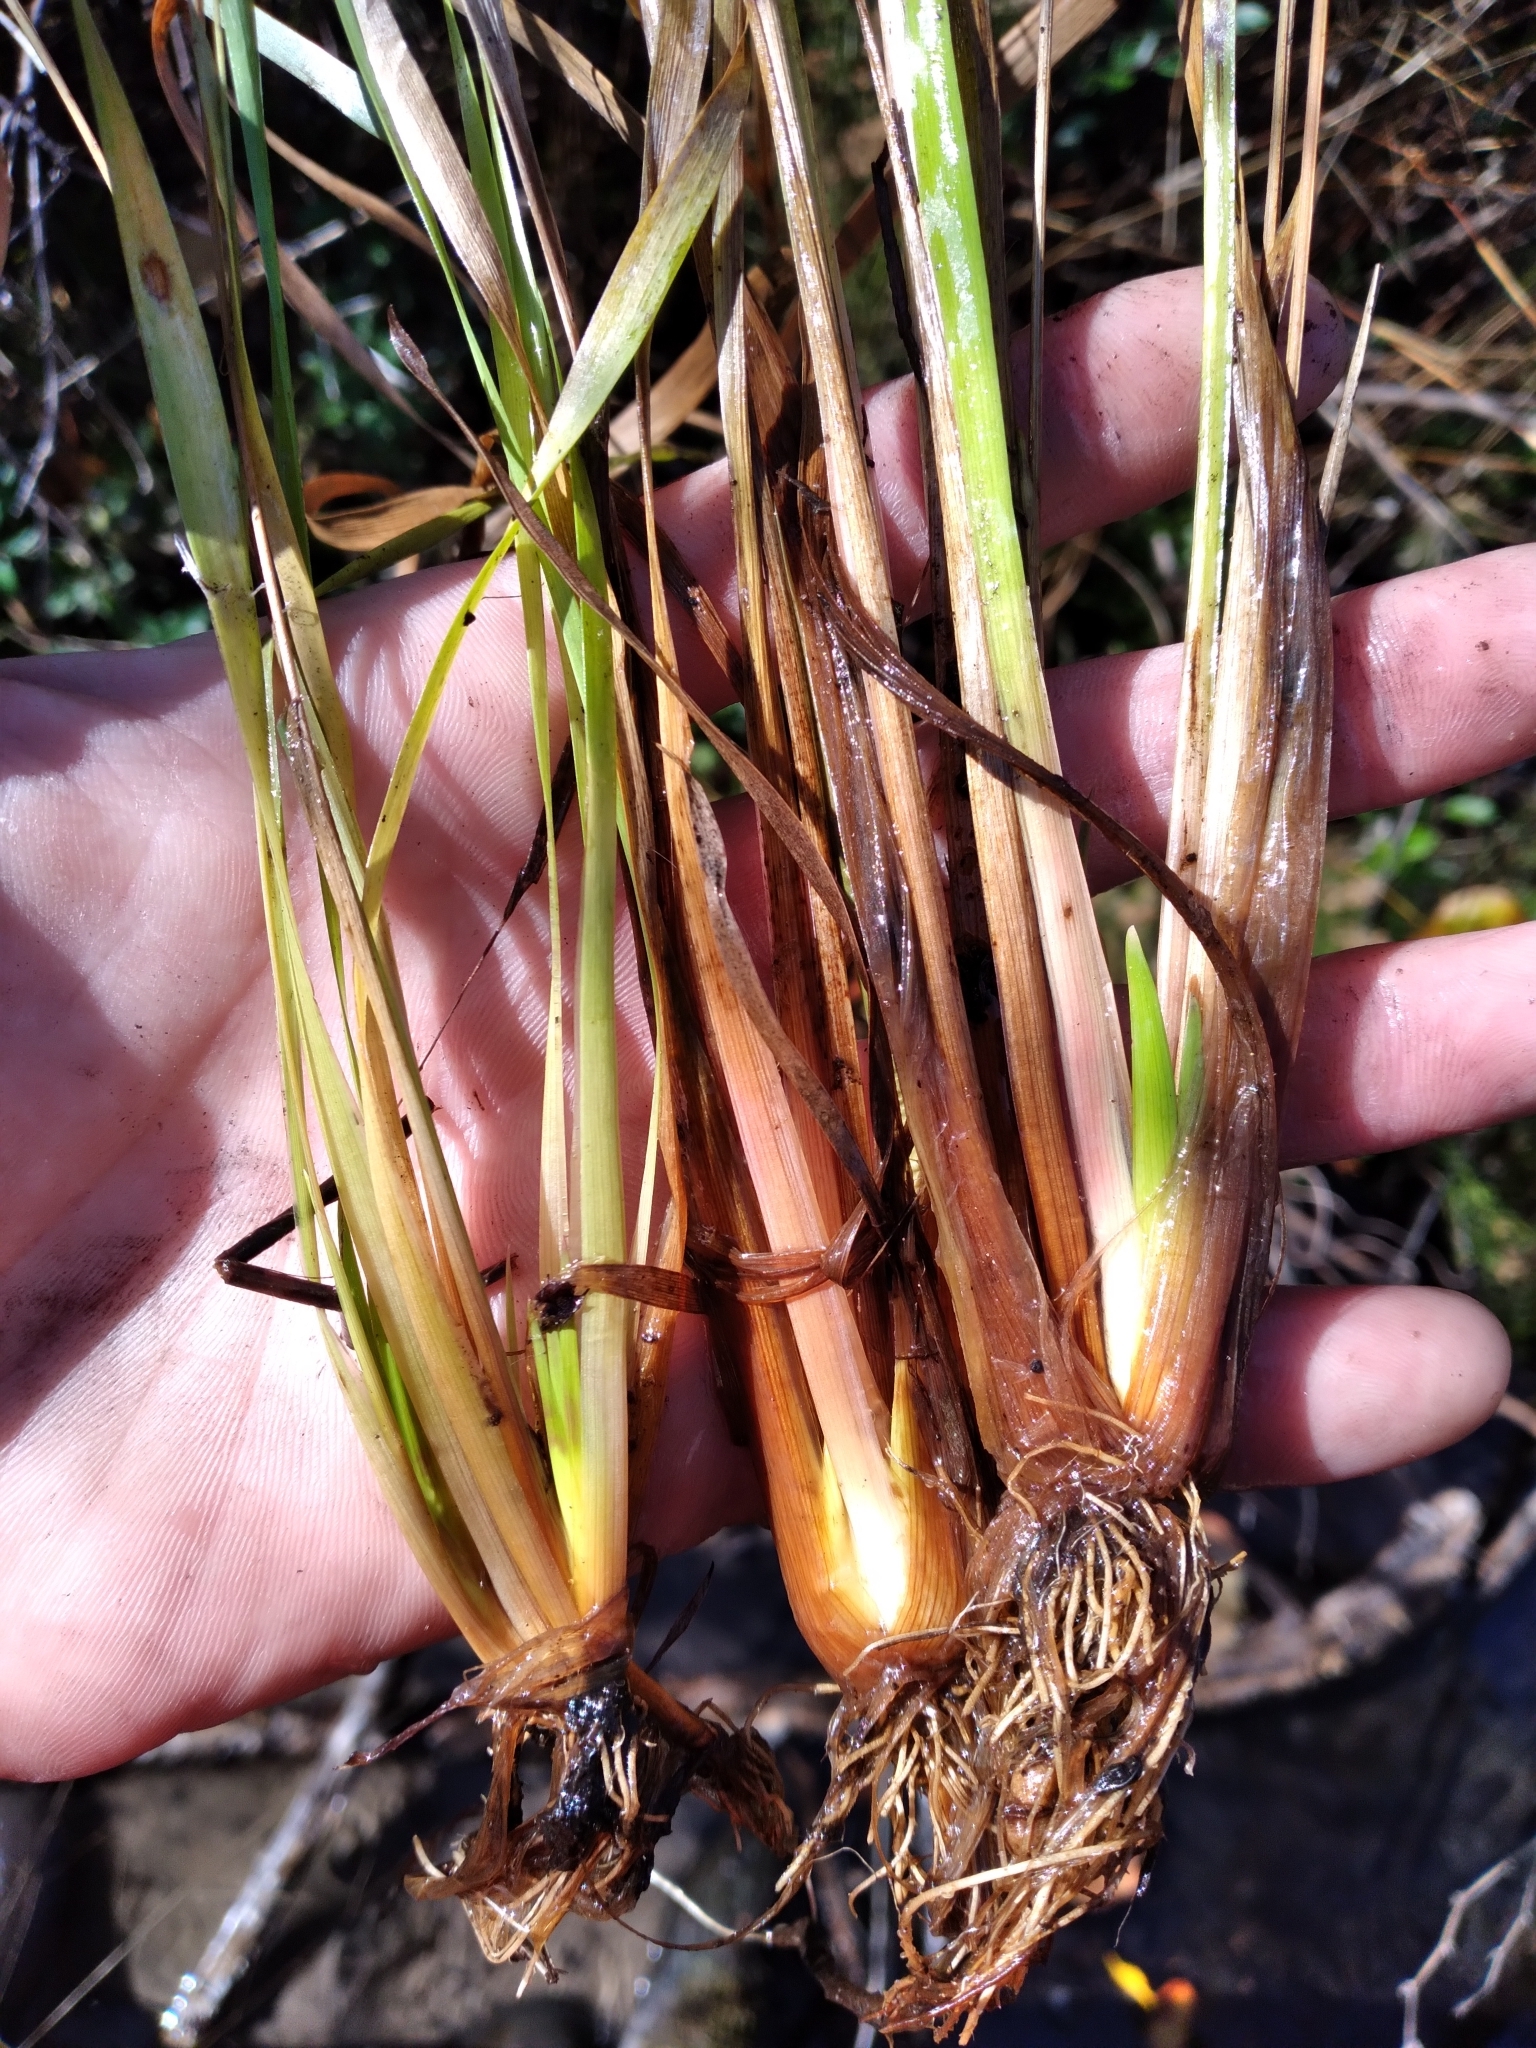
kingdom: Plantae
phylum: Tracheophyta
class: Liliopsida
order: Poales
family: Xyridaceae
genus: Xyris
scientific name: Xyris difformis
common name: Bog yellow-eyed-grass
